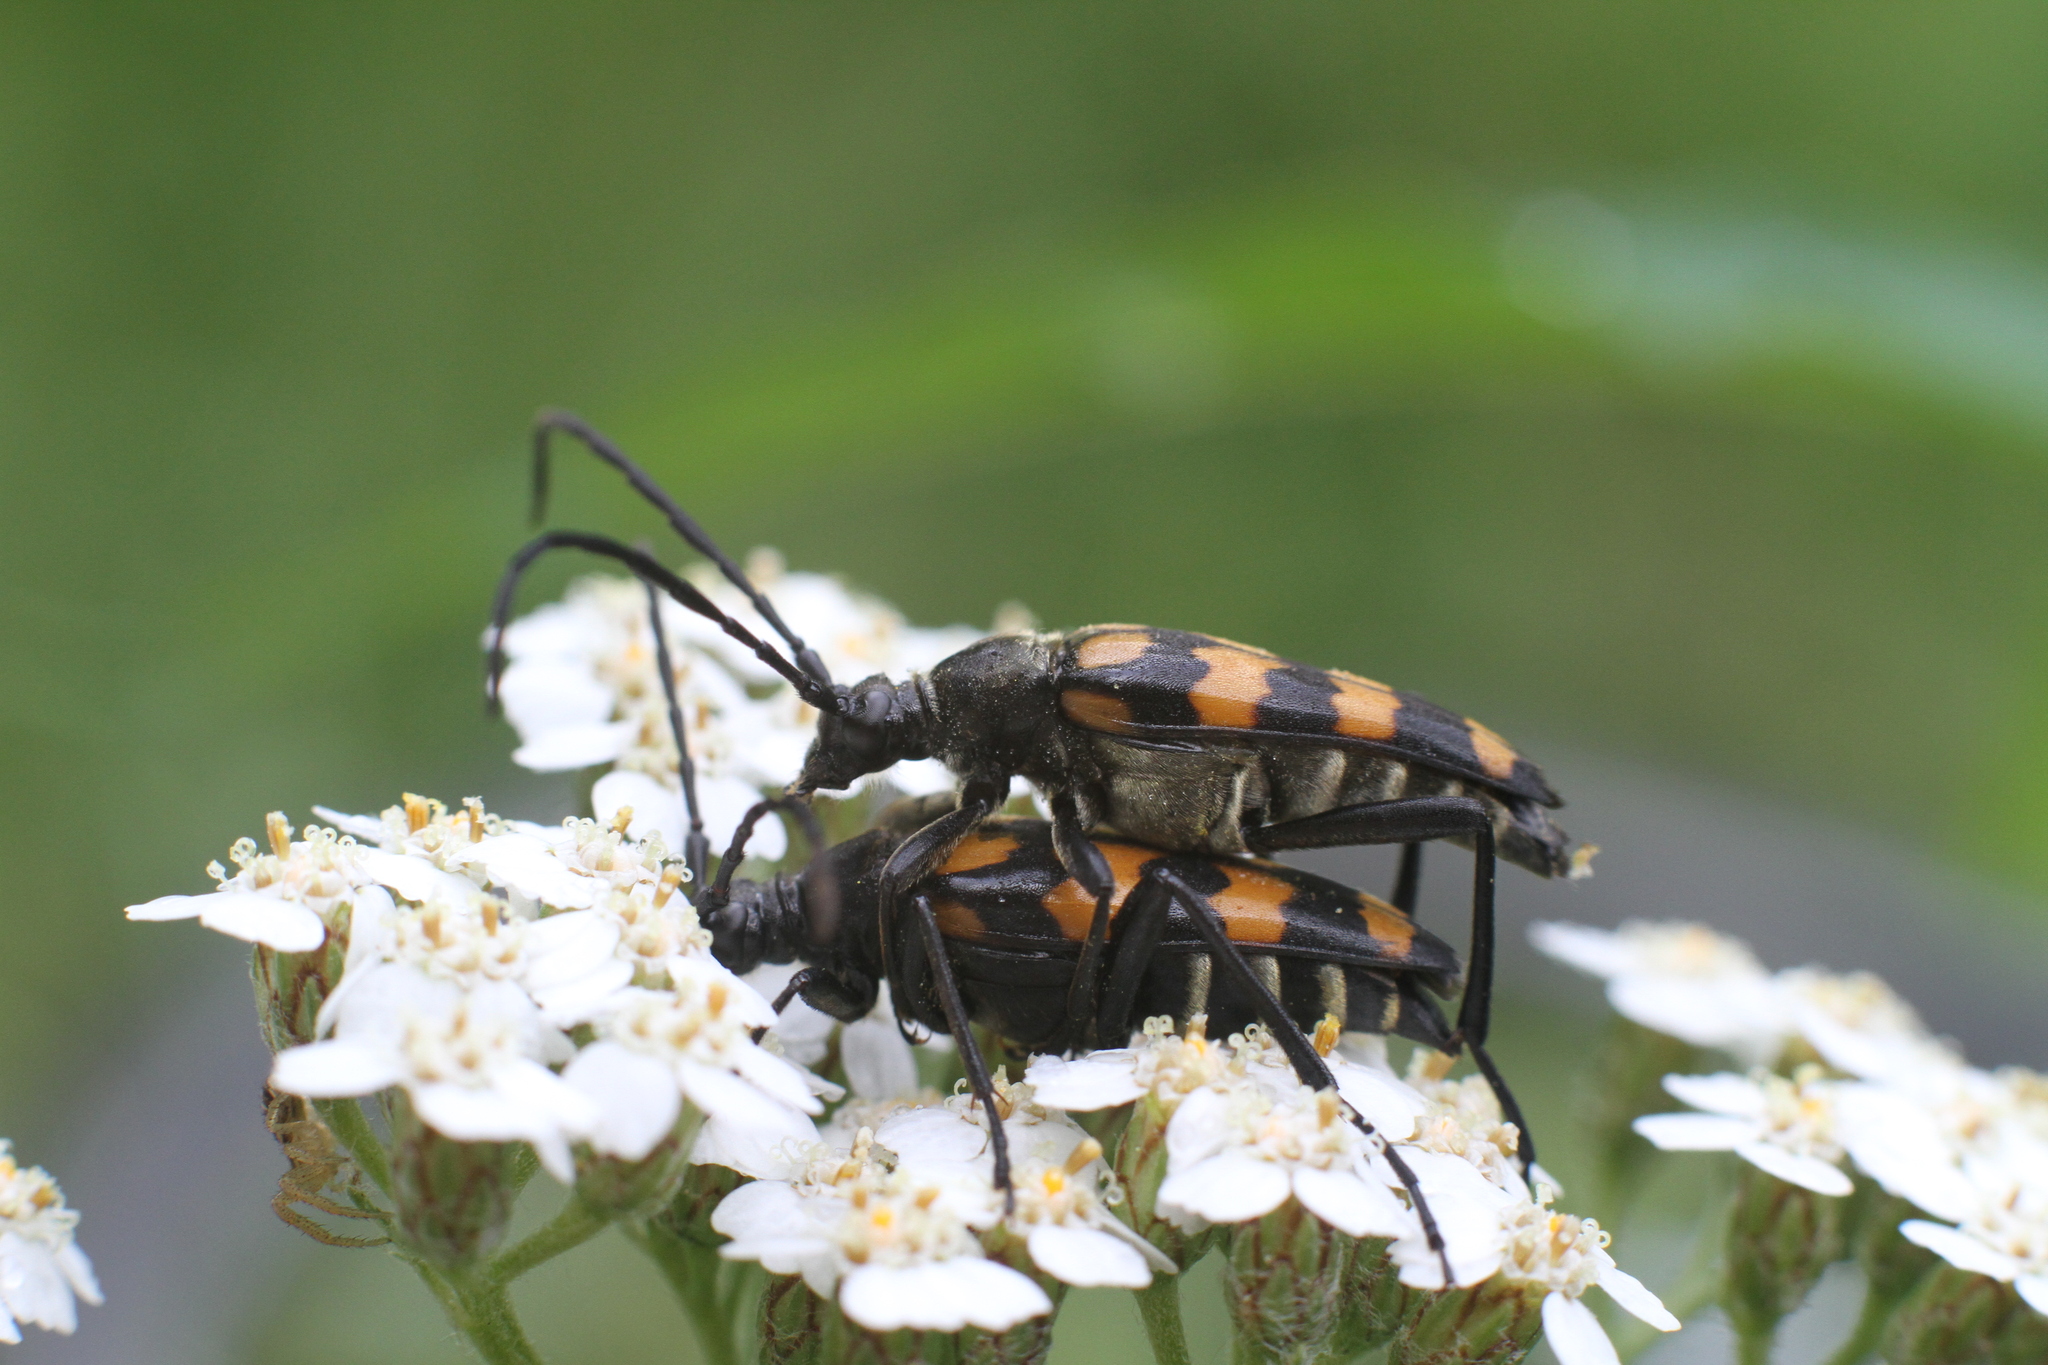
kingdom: Animalia
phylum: Arthropoda
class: Insecta
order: Coleoptera
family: Cerambycidae
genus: Leptura
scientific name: Leptura quadrifasciata
